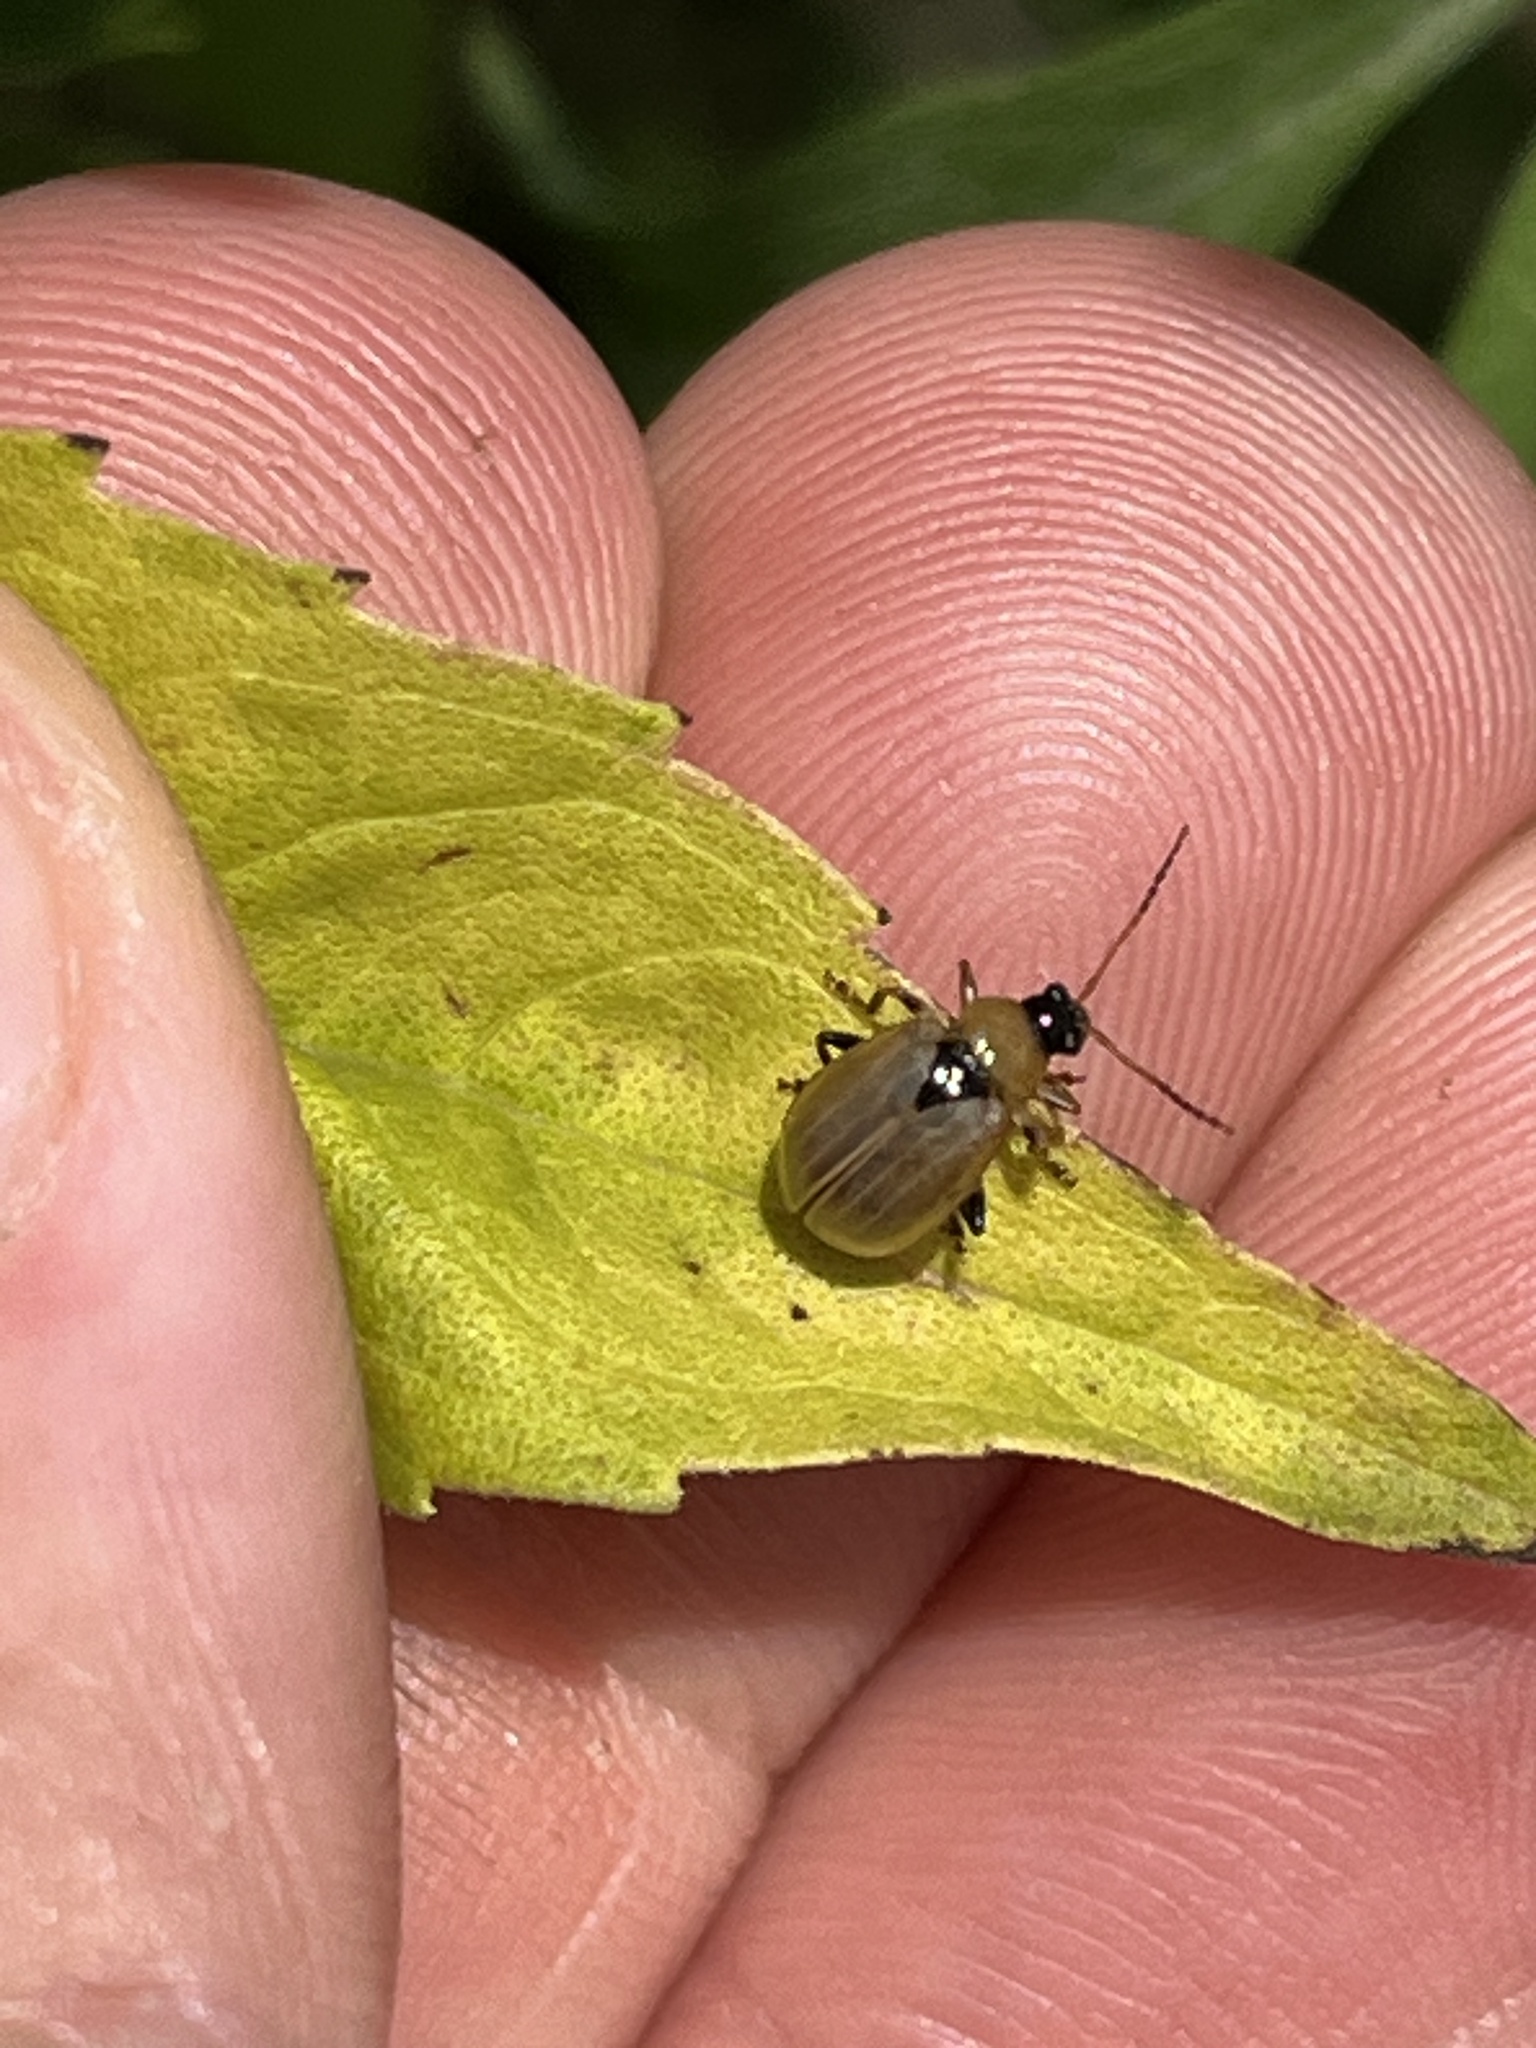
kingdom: Animalia
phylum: Arthropoda
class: Insecta
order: Coleoptera
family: Chrysomelidae
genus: Cerotoma
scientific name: Cerotoma trifurcata
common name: Bean leaf beetle
